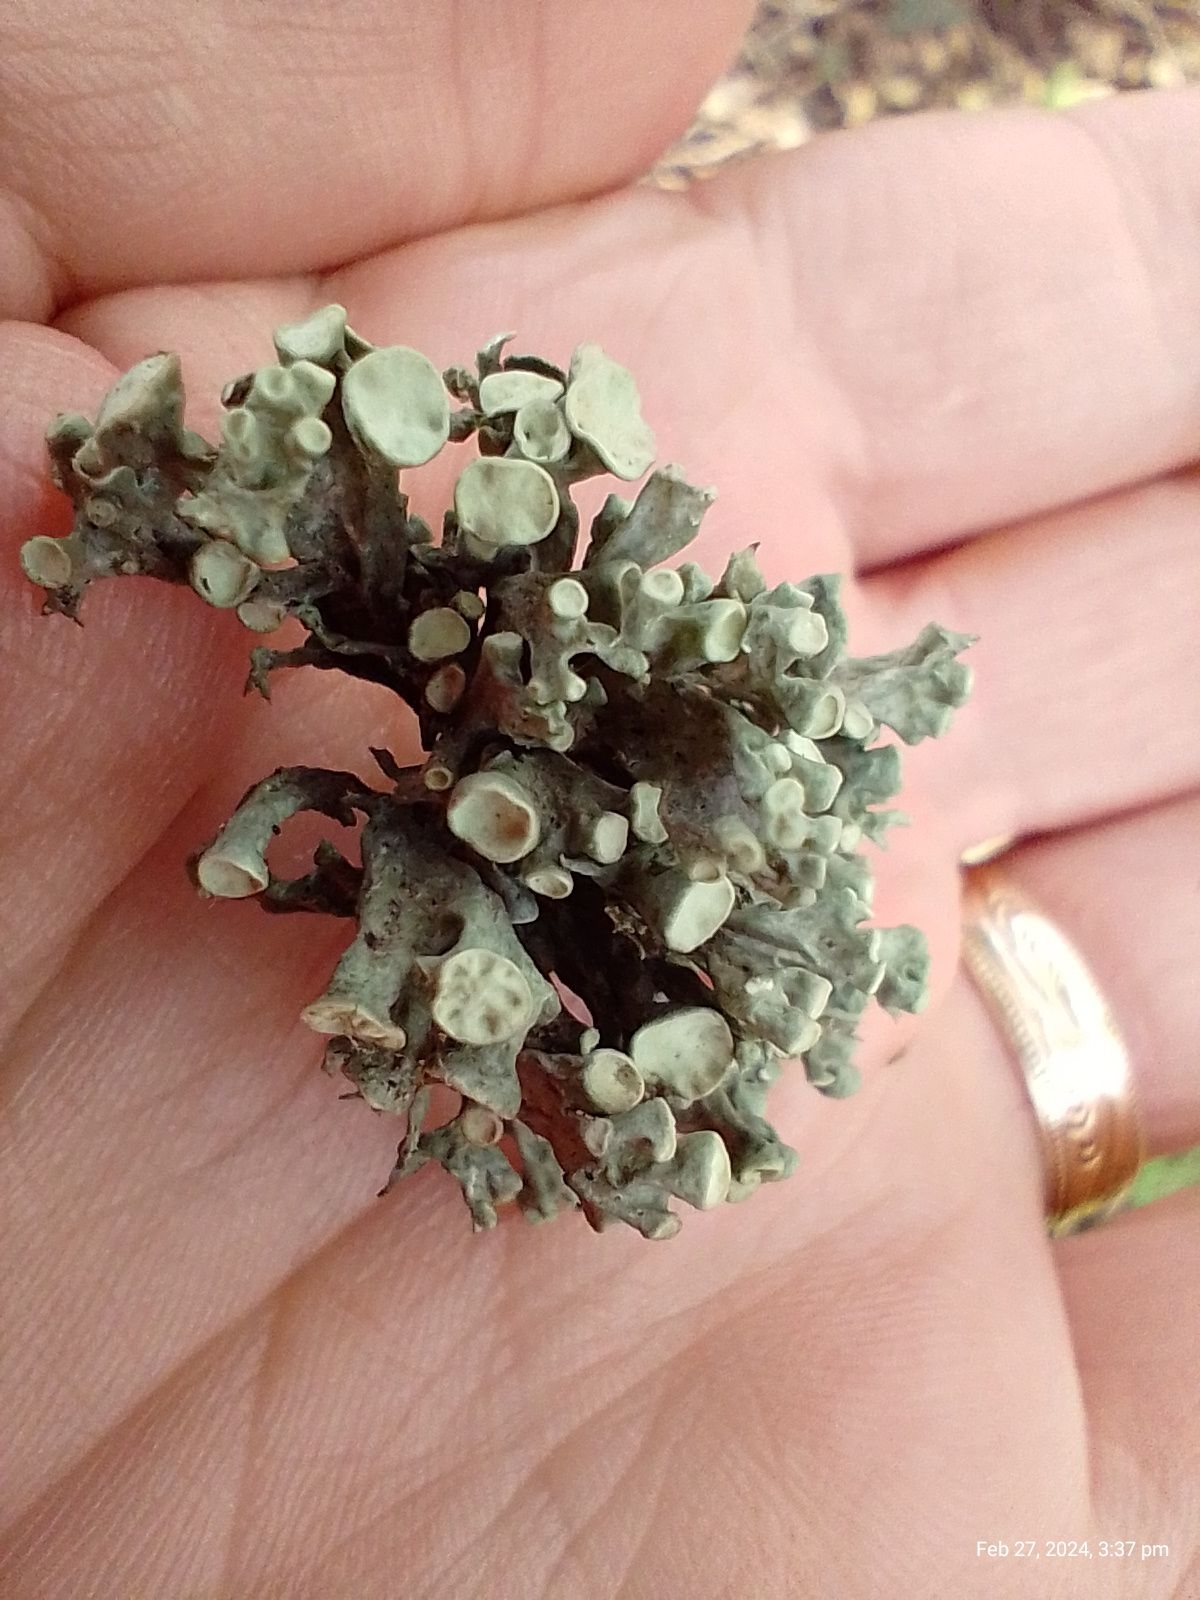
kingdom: Fungi
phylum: Ascomycota
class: Lecanoromycetes
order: Lecanorales
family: Ramalinaceae
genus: Ramalina
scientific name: Ramalina fastigiata
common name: Dotted ribbon lichen
